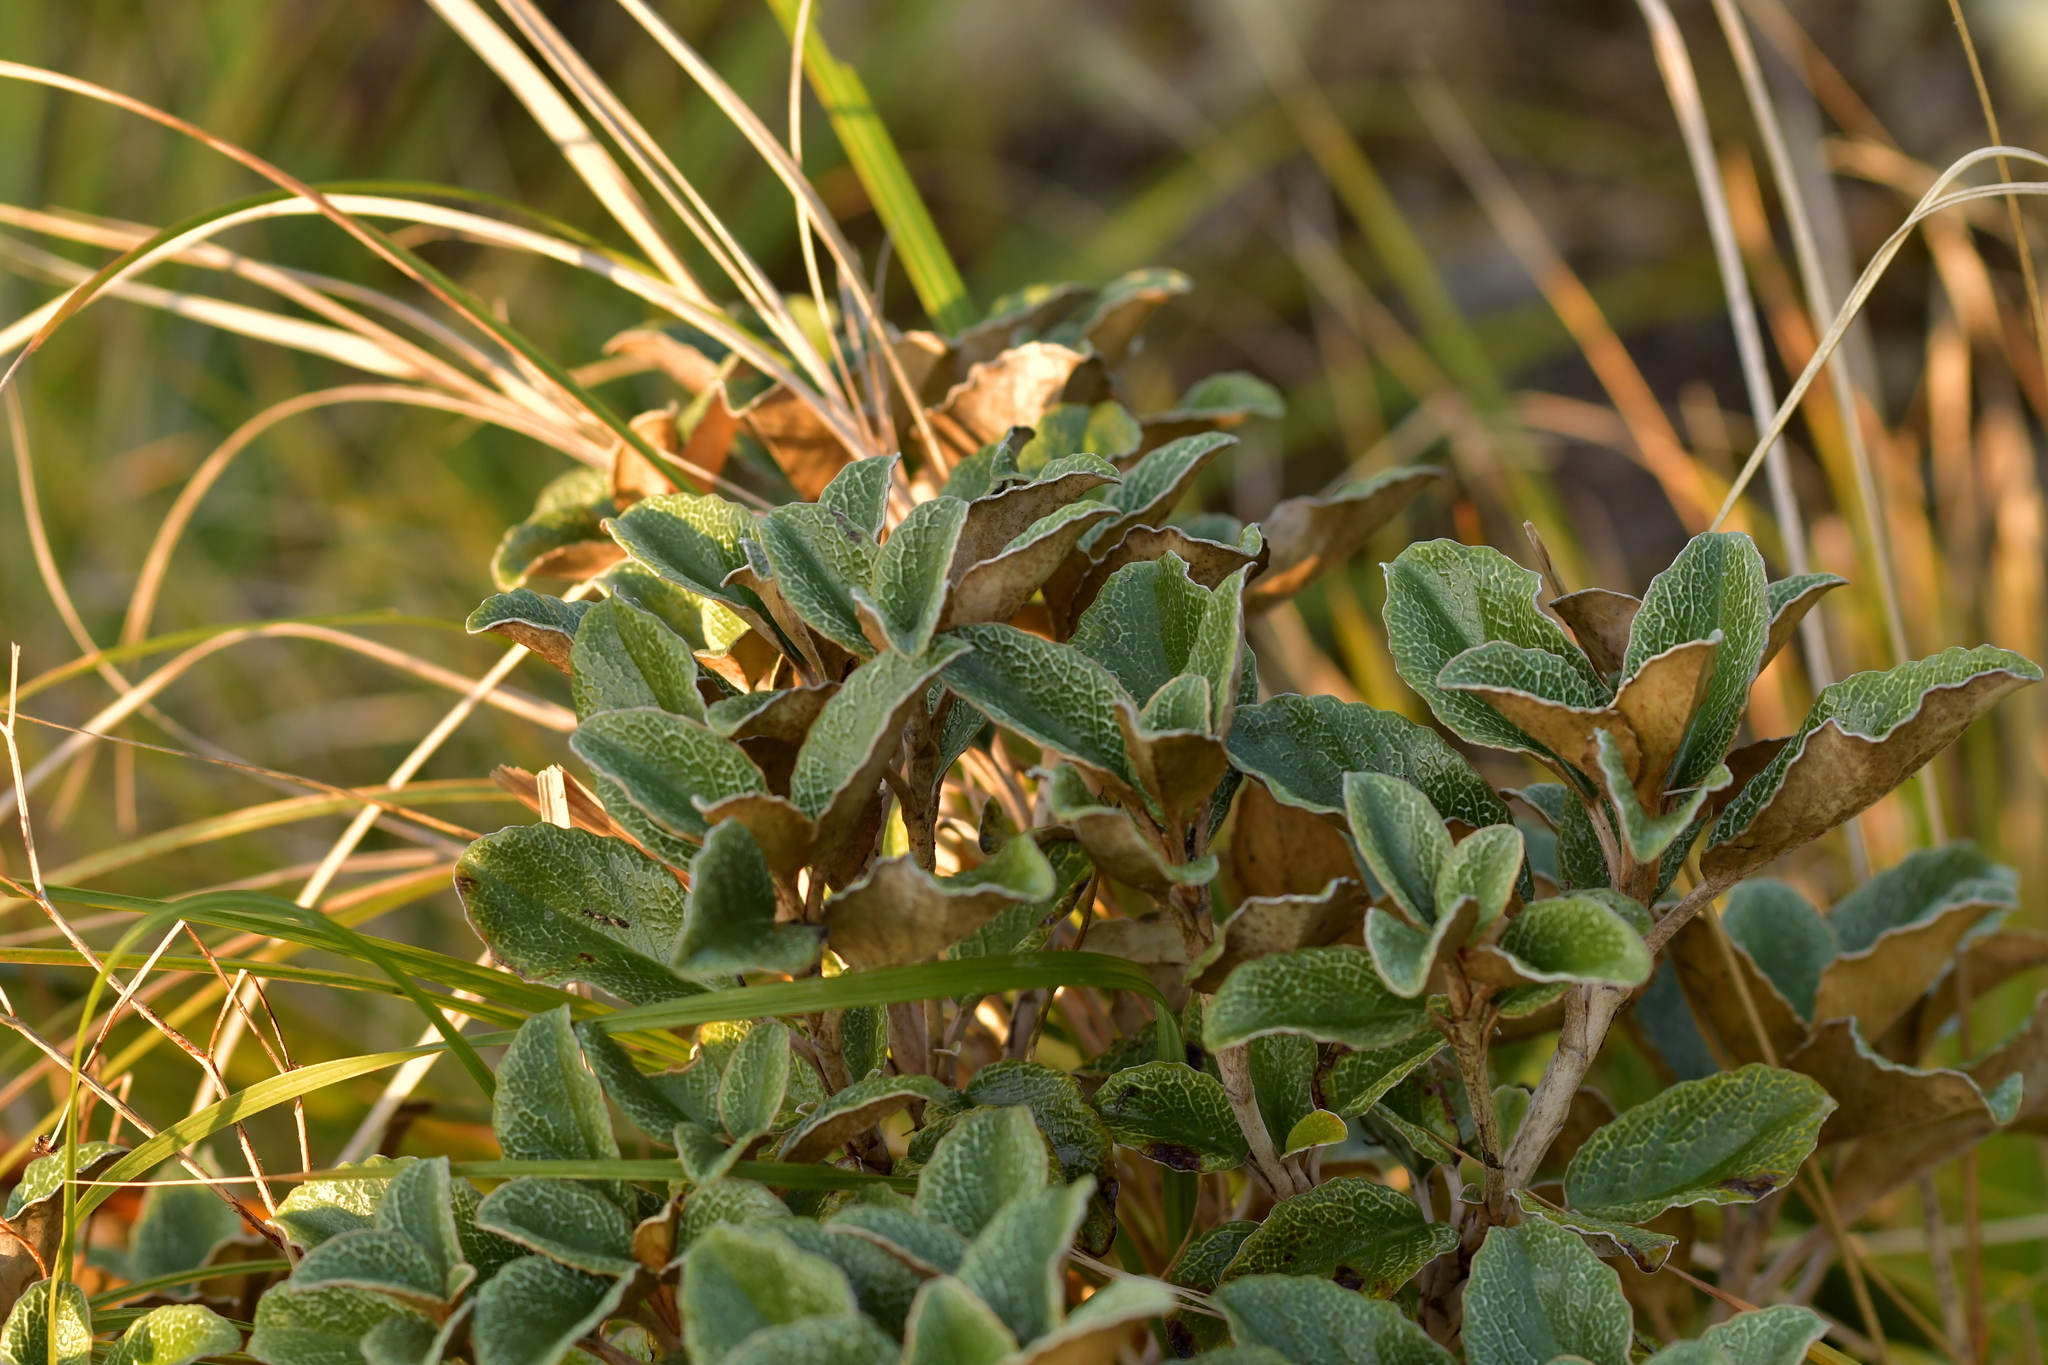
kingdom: Plantae
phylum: Tracheophyta
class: Magnoliopsida
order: Asterales
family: Asteraceae
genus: Brachyglottis
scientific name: Brachyglottis elaeagnifolia
